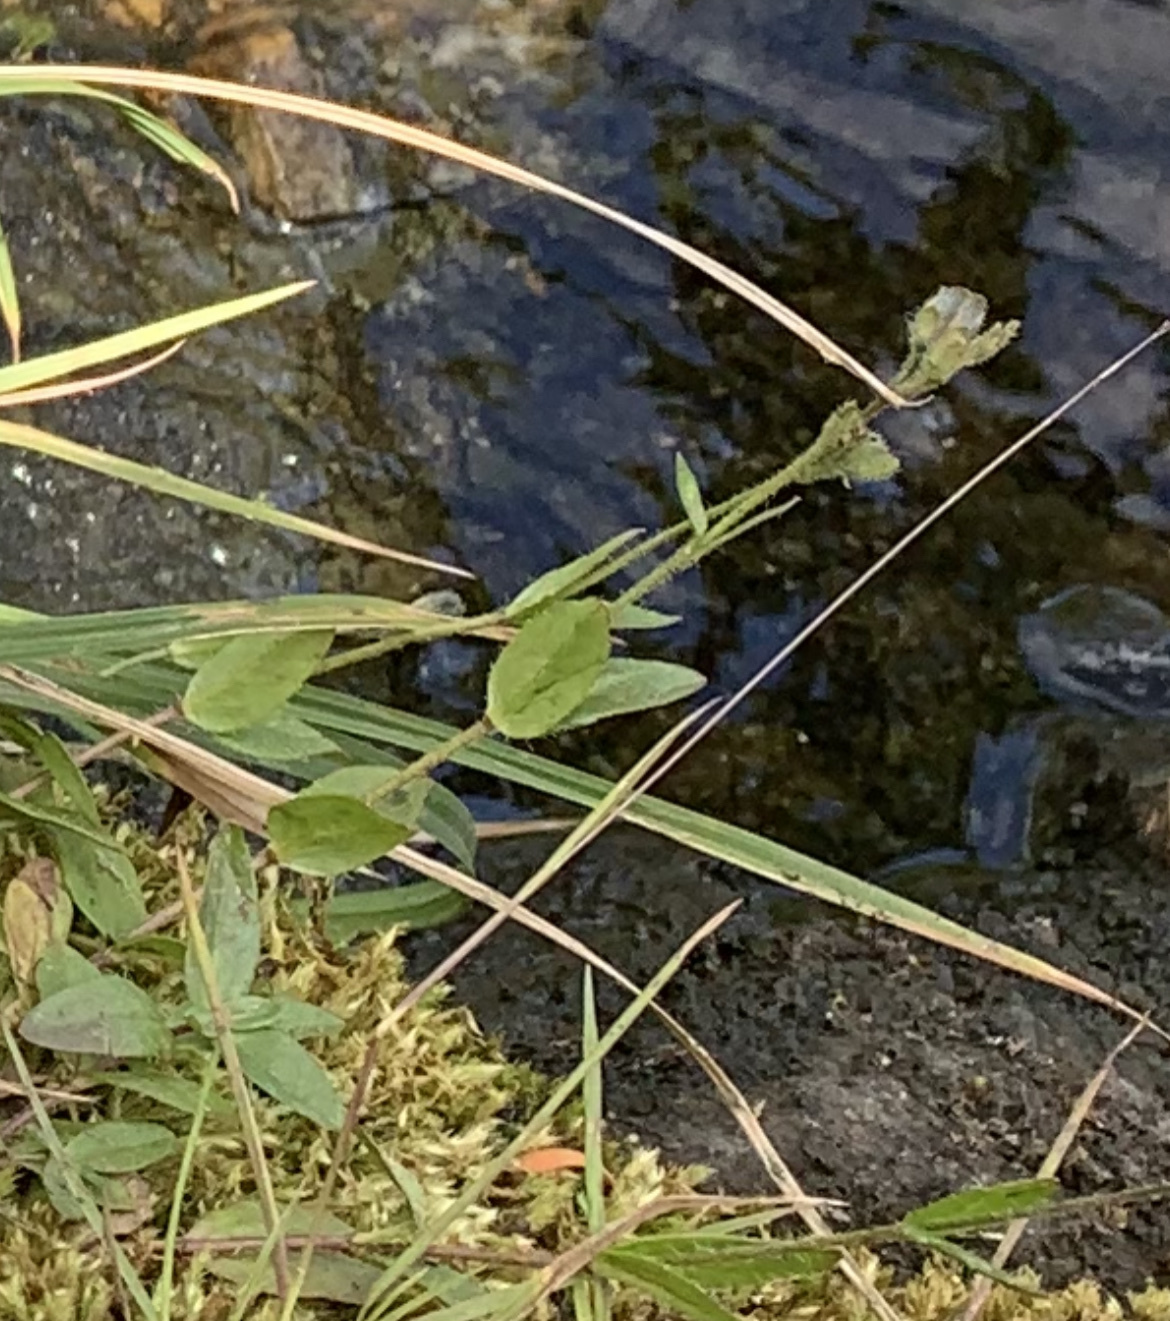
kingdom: Plantae
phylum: Tracheophyta
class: Magnoliopsida
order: Lamiales
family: Plantaginaceae
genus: Veronica
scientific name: Veronica wormskjoldii
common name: American alpine speedwell
